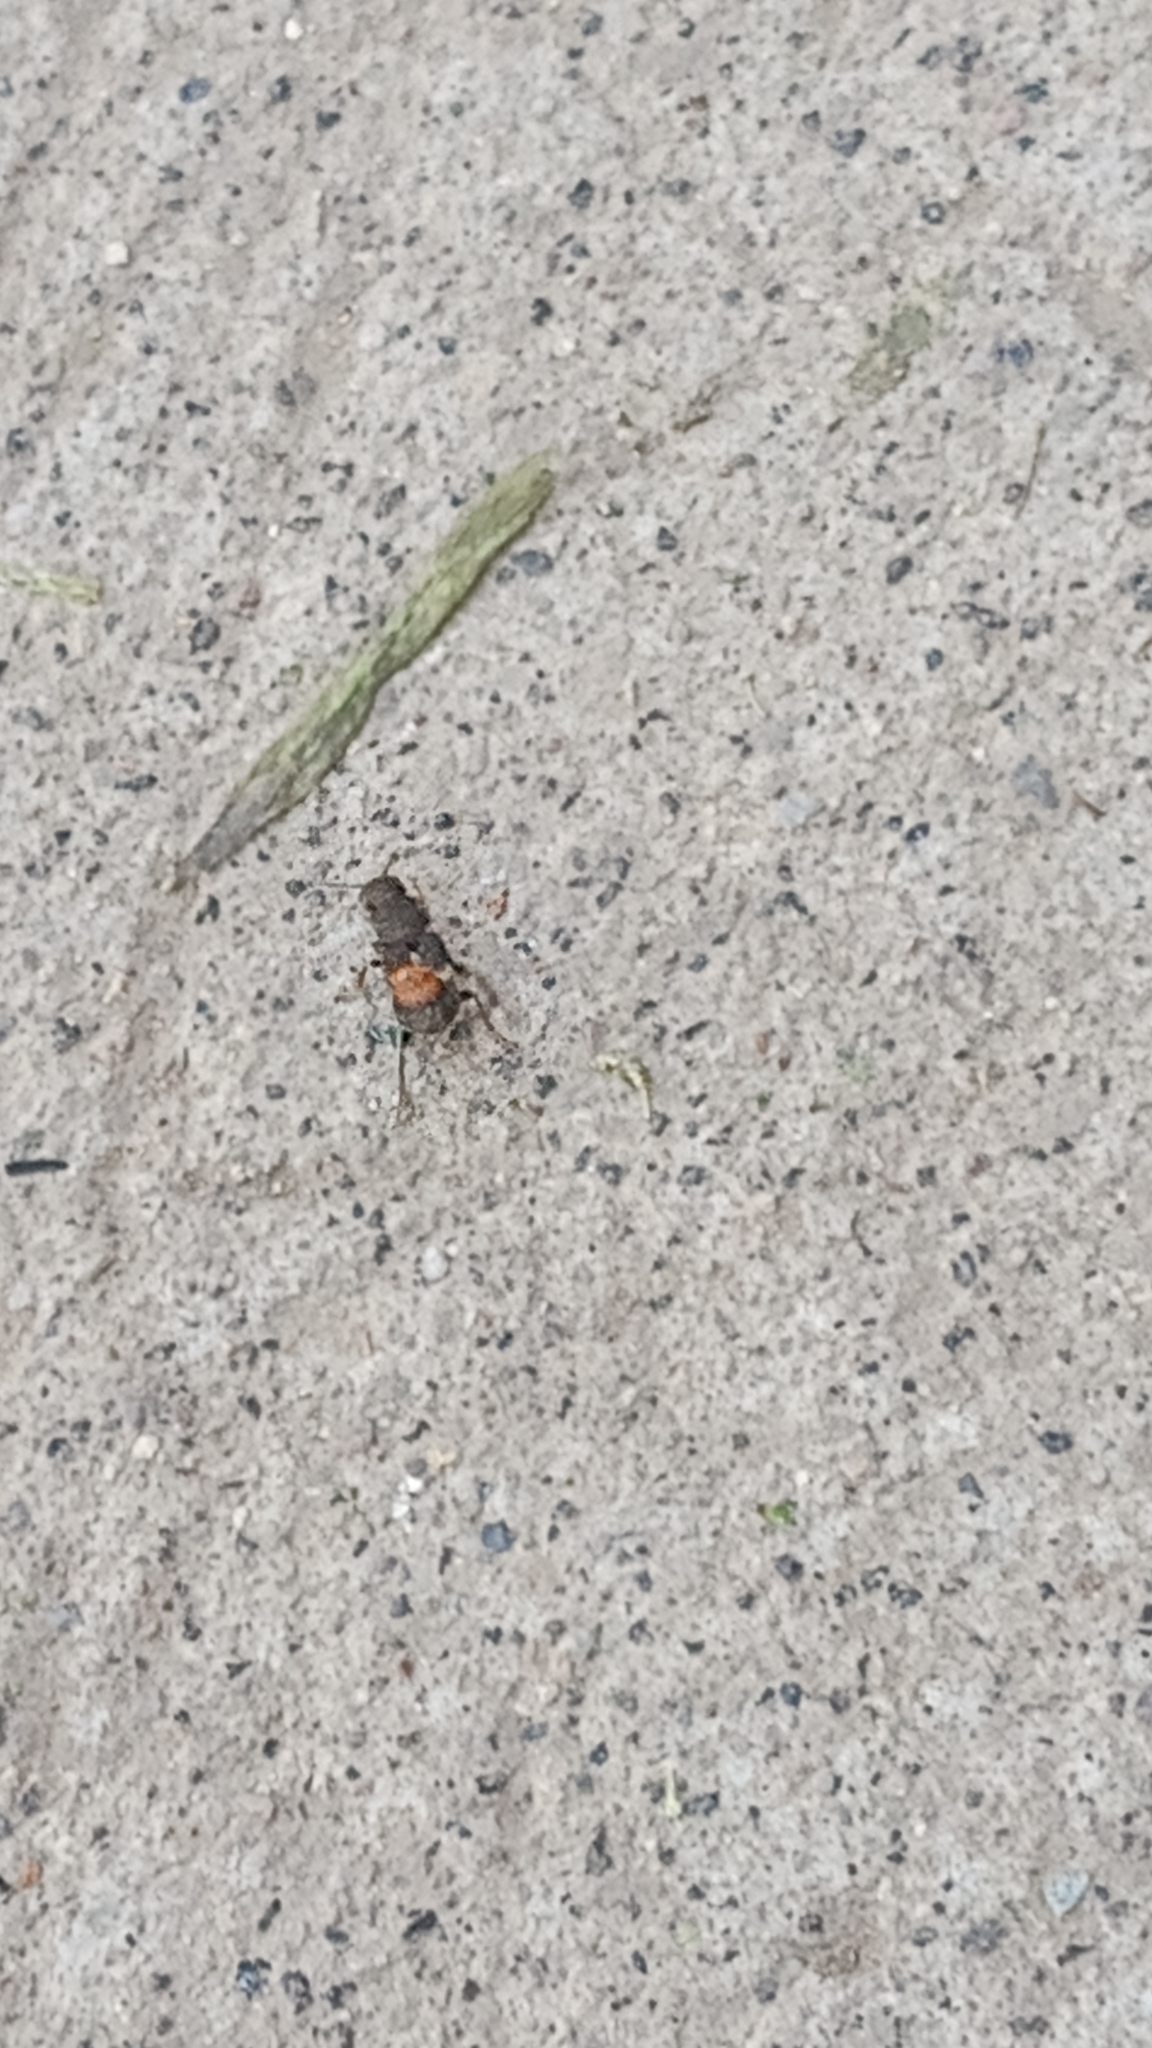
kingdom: Animalia
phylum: Arthropoda
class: Insecta
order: Coleoptera
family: Staphylinidae
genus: Platydracus
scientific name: Platydracus apicipennis
